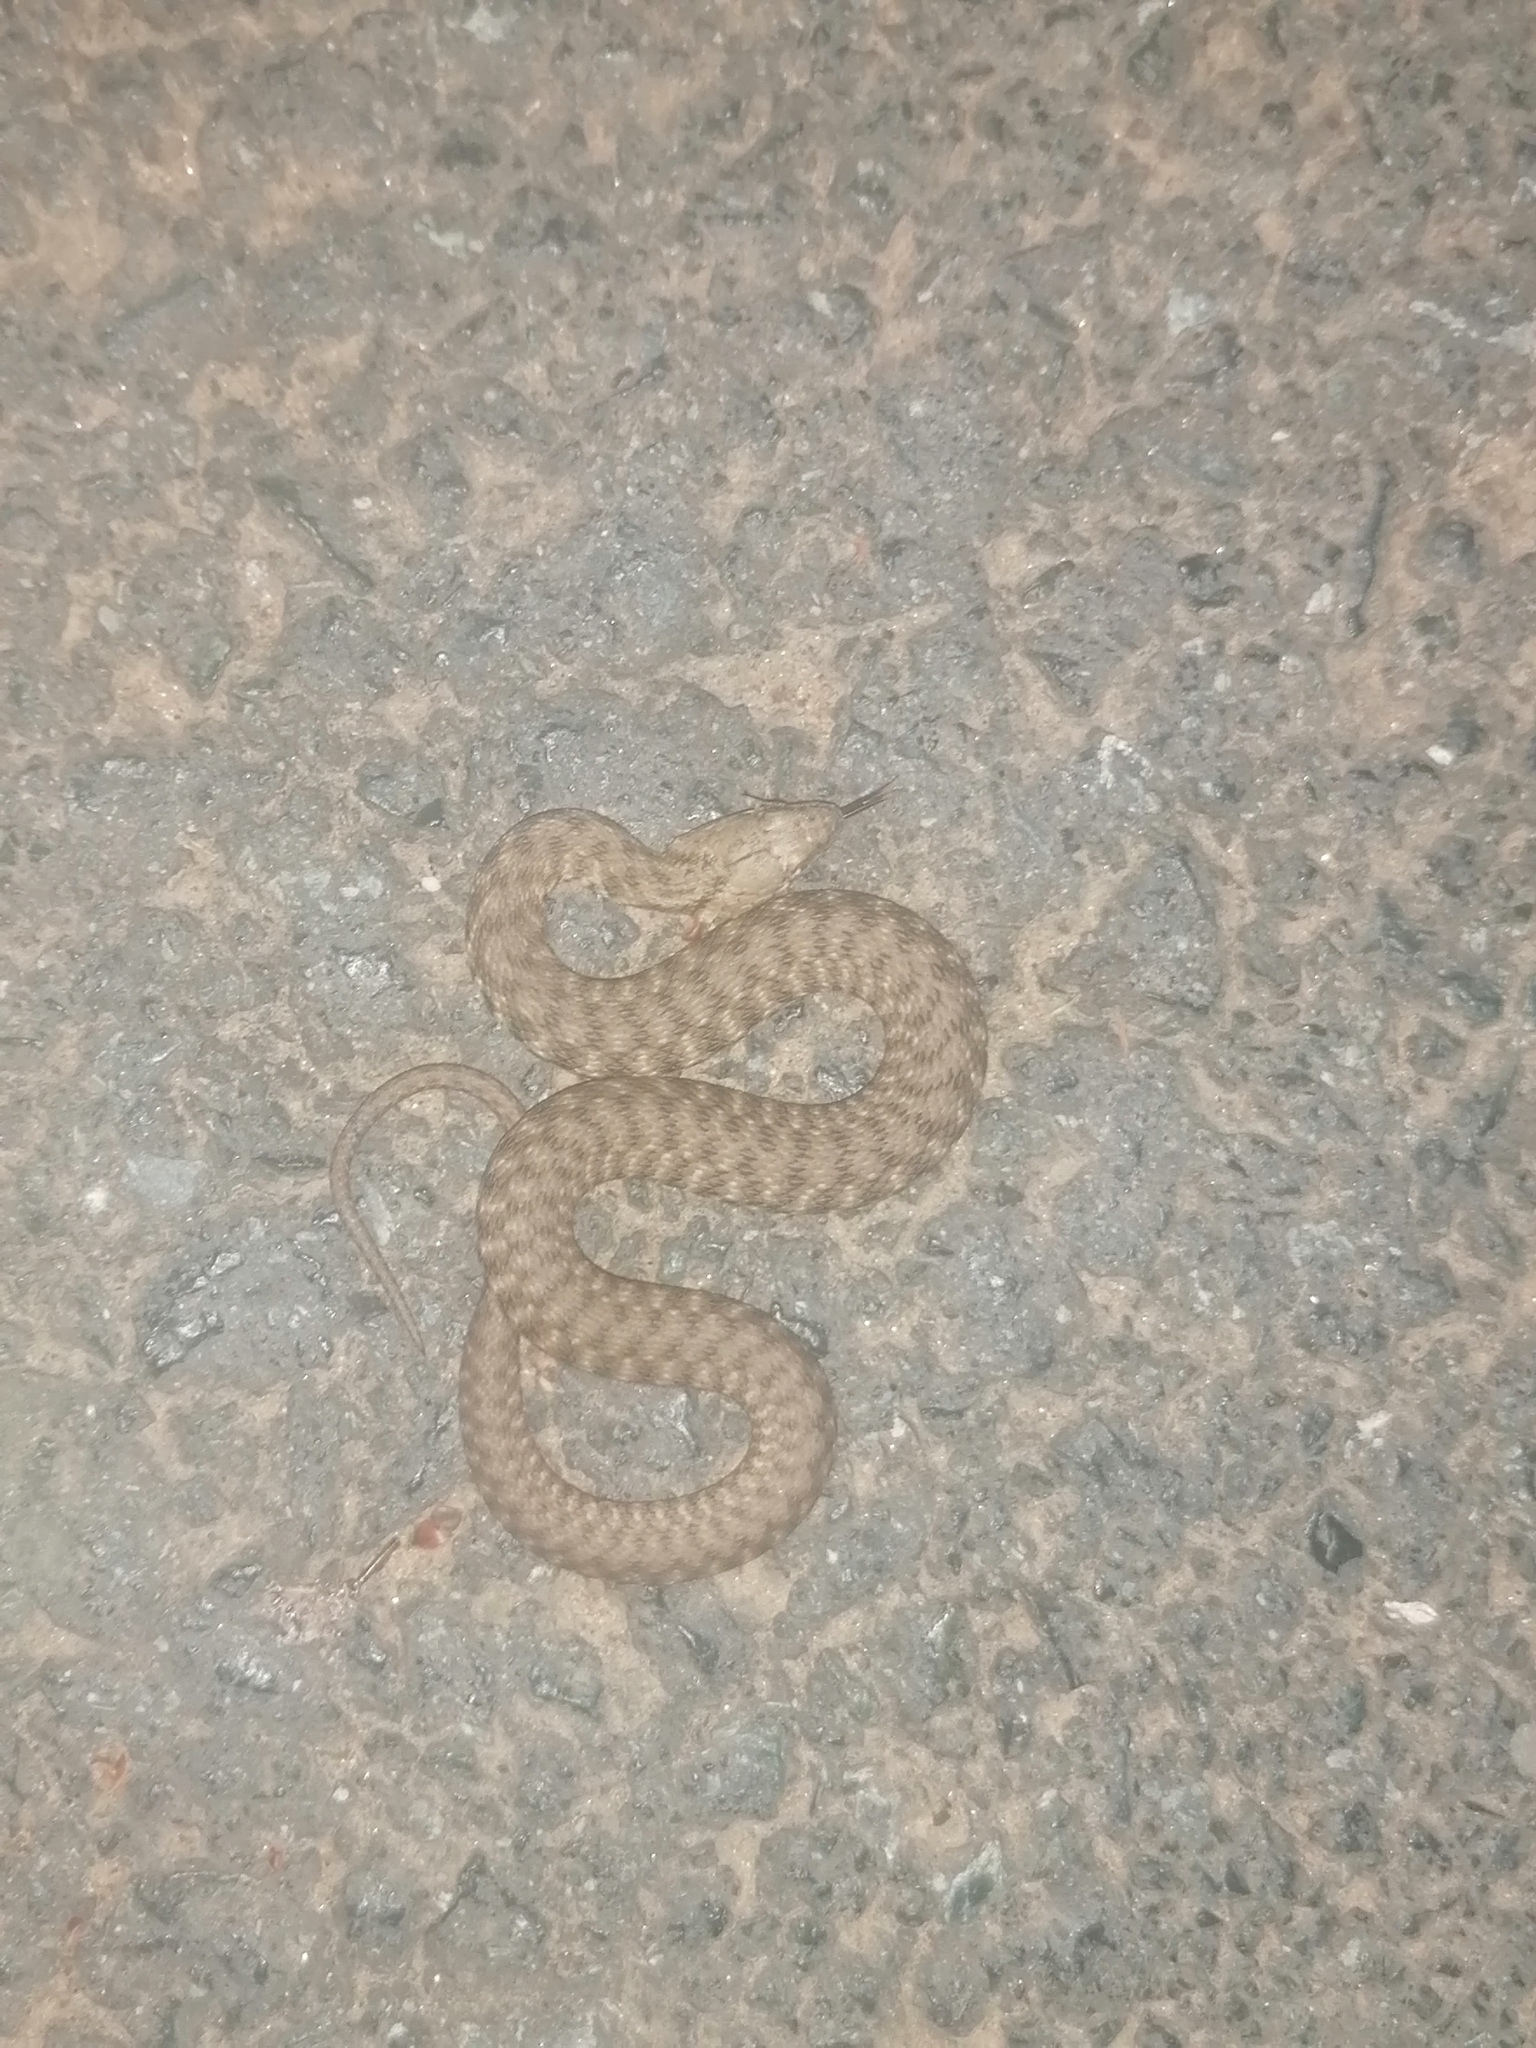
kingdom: Animalia
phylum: Chordata
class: Squamata
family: Colubridae
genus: Natrix
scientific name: Natrix tessellata
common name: Dice snake
